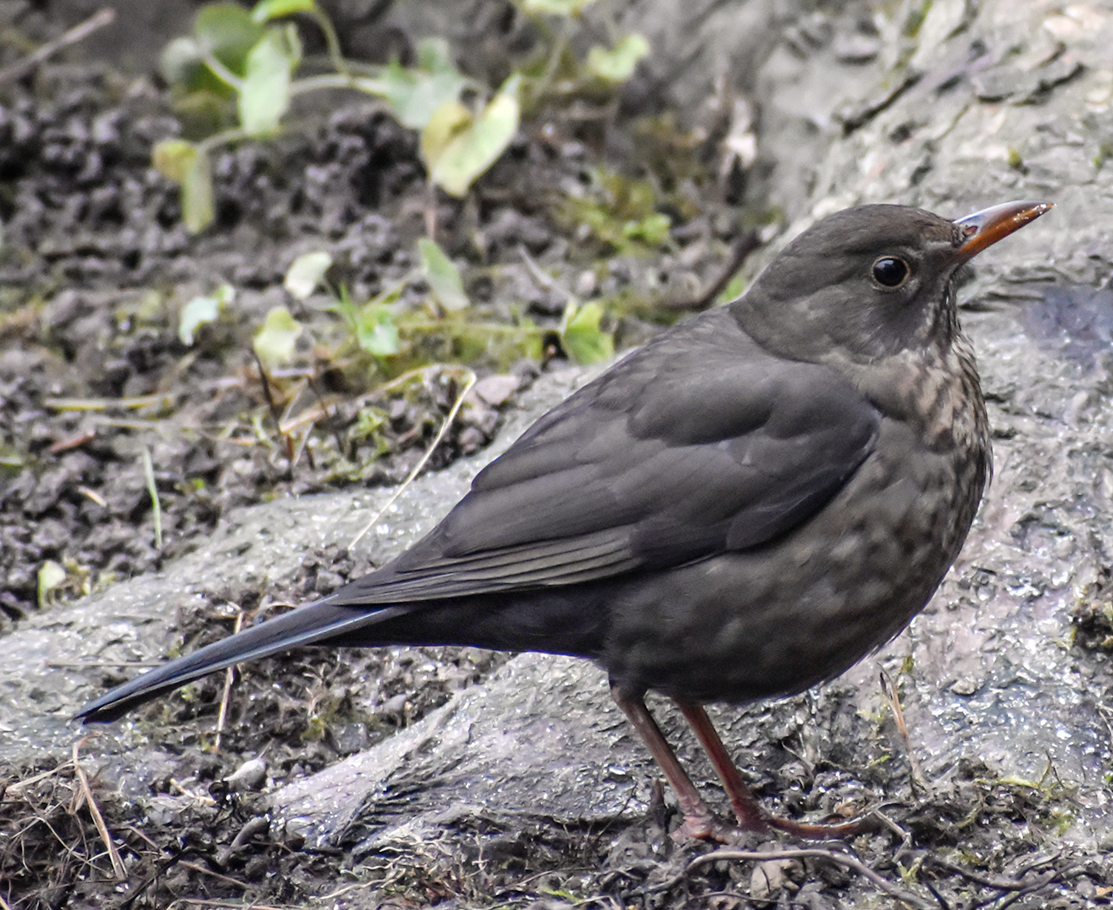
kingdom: Animalia
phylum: Chordata
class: Aves
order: Passeriformes
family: Turdidae
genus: Turdus
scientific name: Turdus merula
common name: Common blackbird
